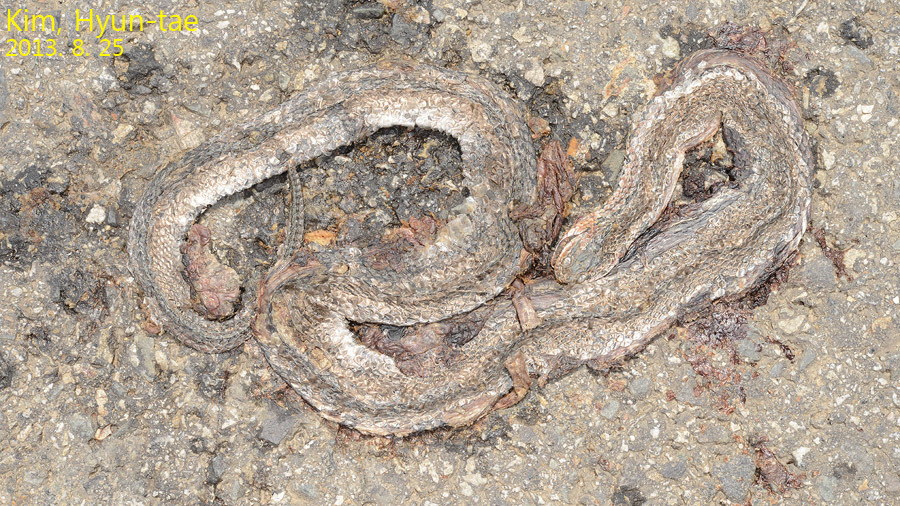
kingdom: Animalia
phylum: Chordata
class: Squamata
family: Colubridae
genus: Oocatochus
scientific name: Oocatochus rufodorsatus
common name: Frog-eating rat snake
